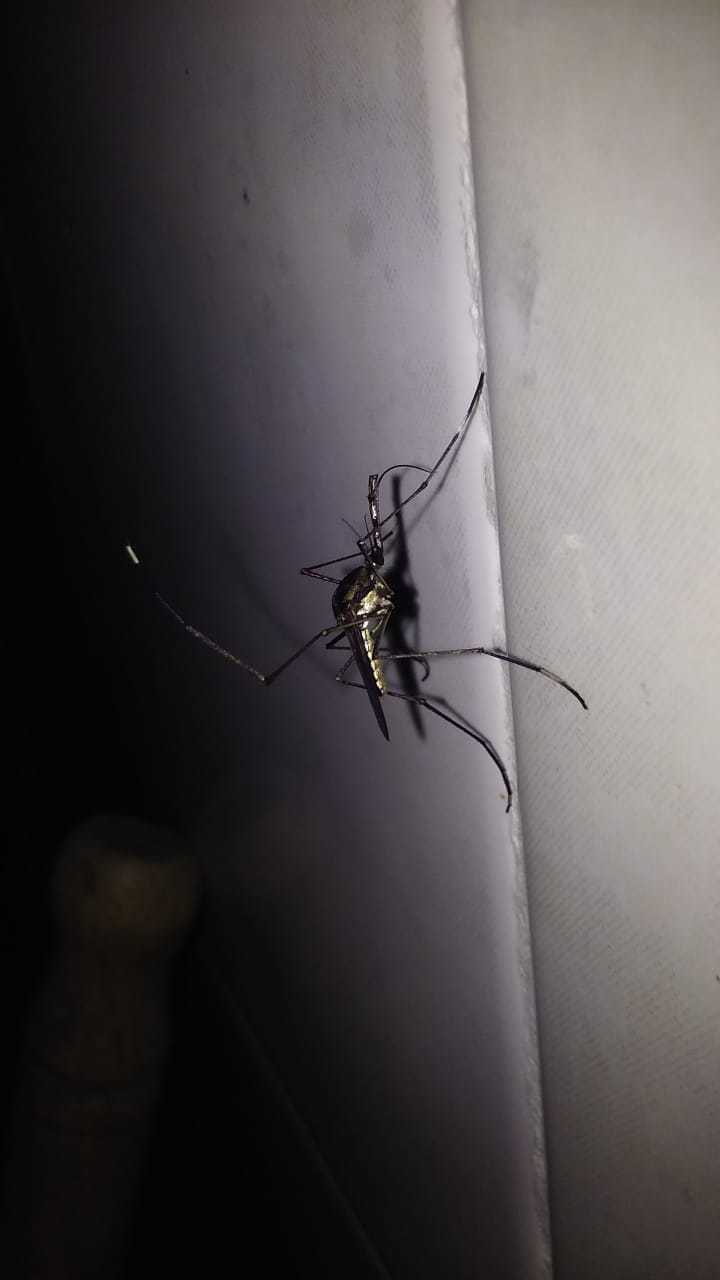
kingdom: Animalia
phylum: Arthropoda
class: Insecta
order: Diptera
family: Culicidae
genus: Toxorhynchites
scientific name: Toxorhynchites guadeloupensis
